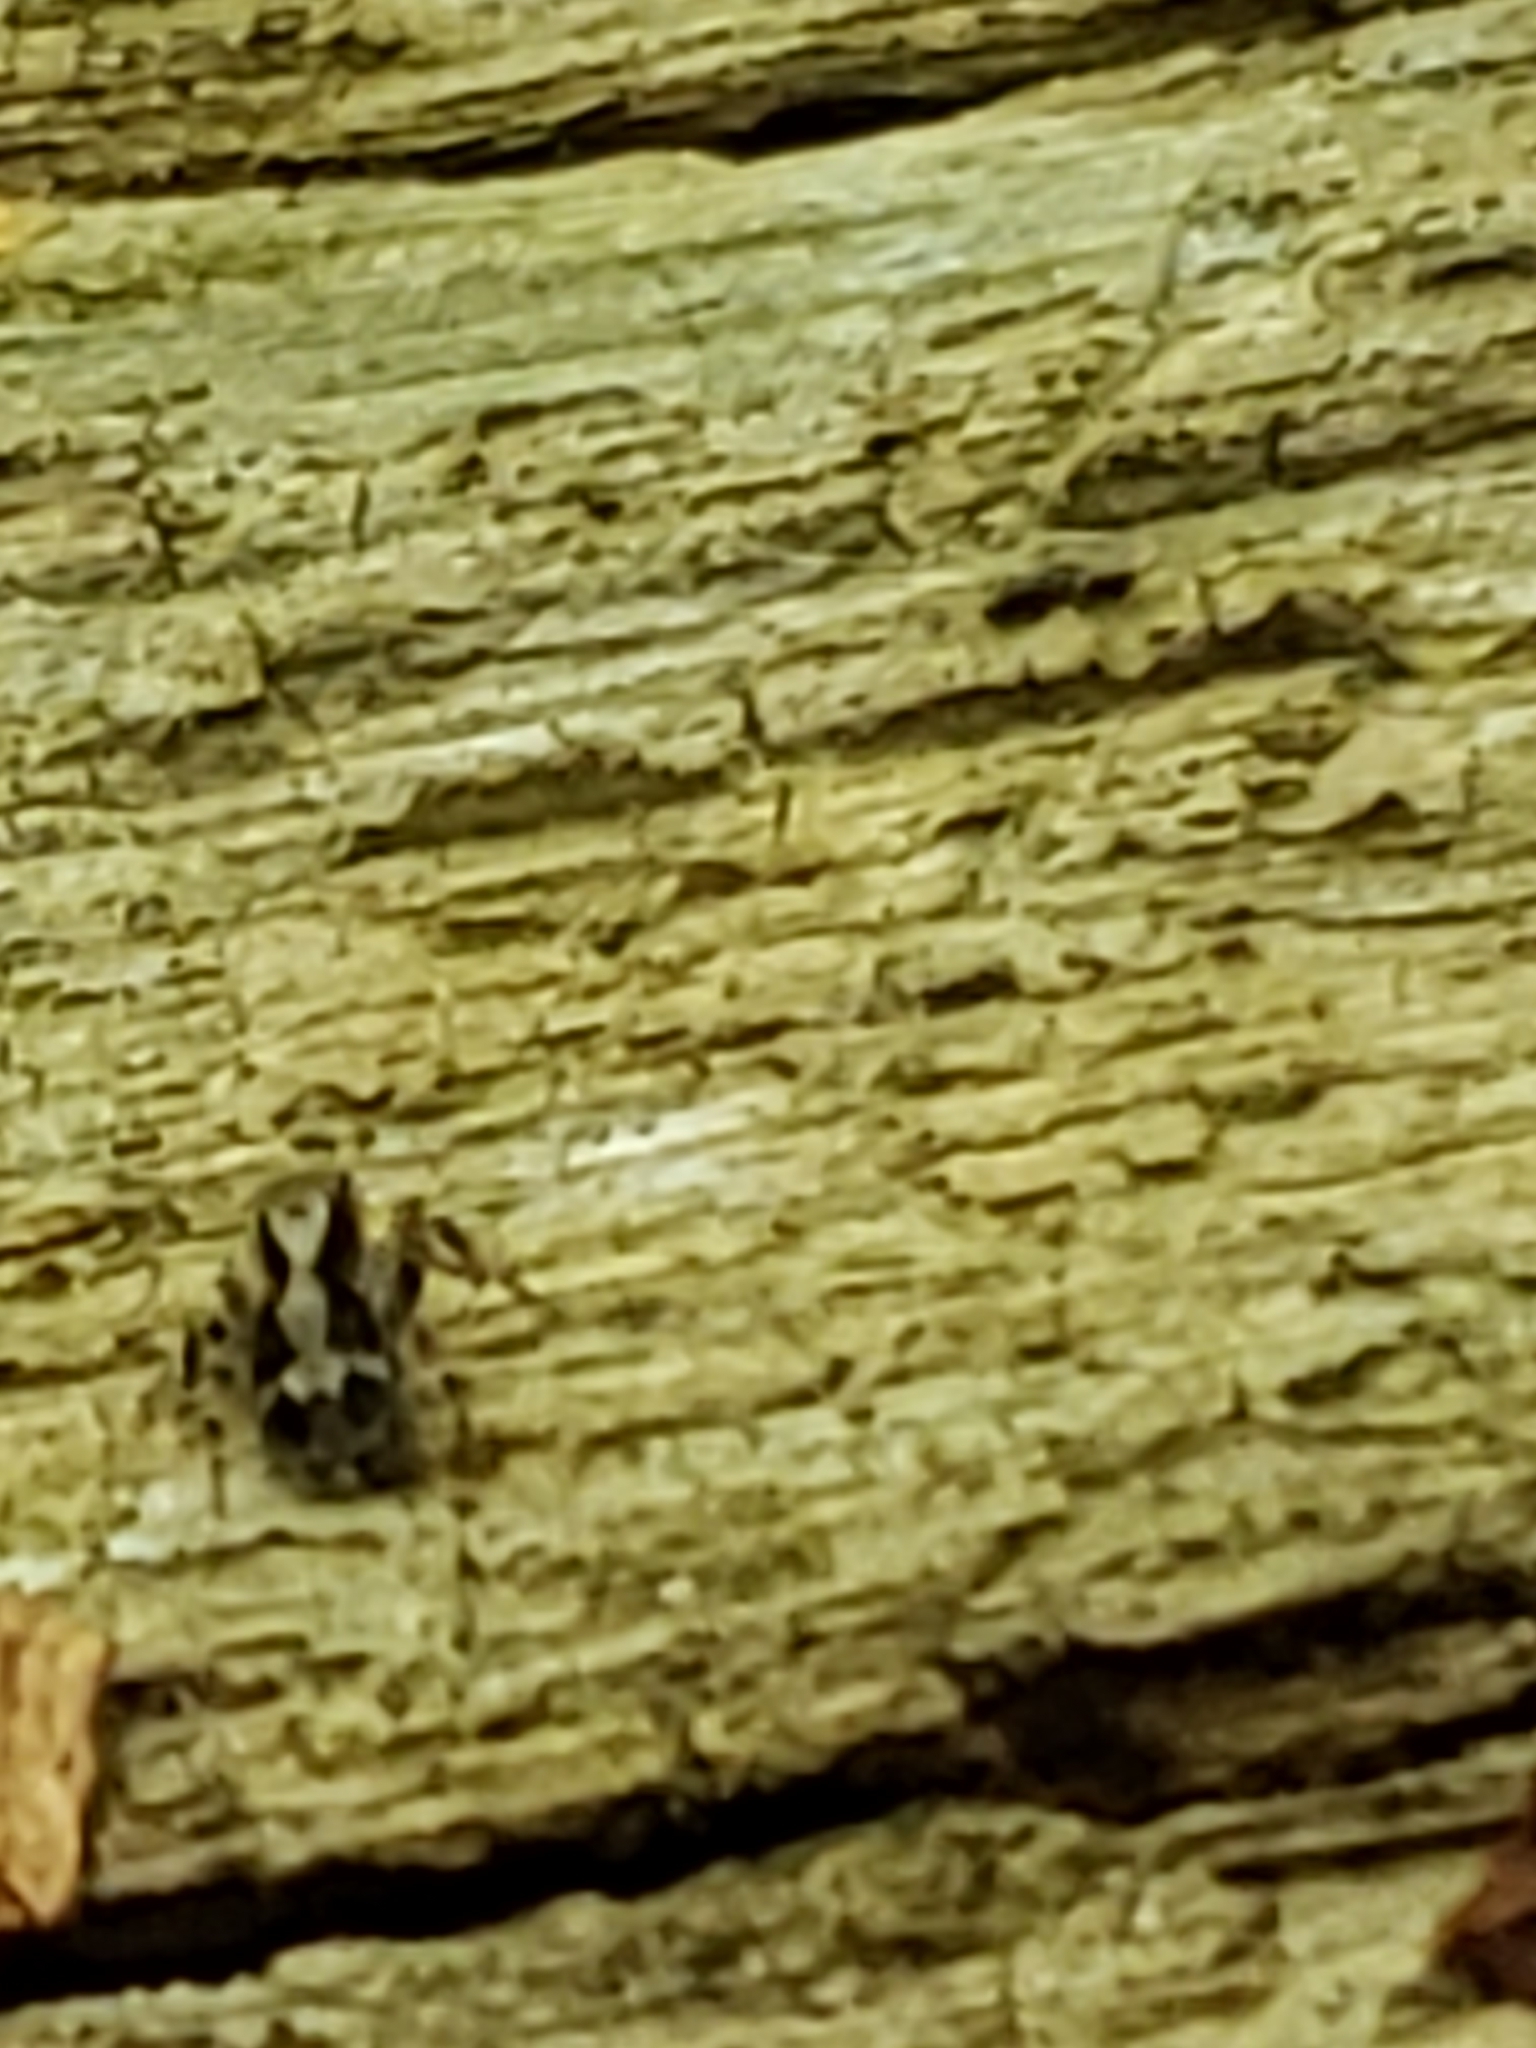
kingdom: Animalia
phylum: Arthropoda
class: Arachnida
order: Araneae
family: Salticidae
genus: Naphrys
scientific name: Naphrys pulex
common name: Flea jumping spider
